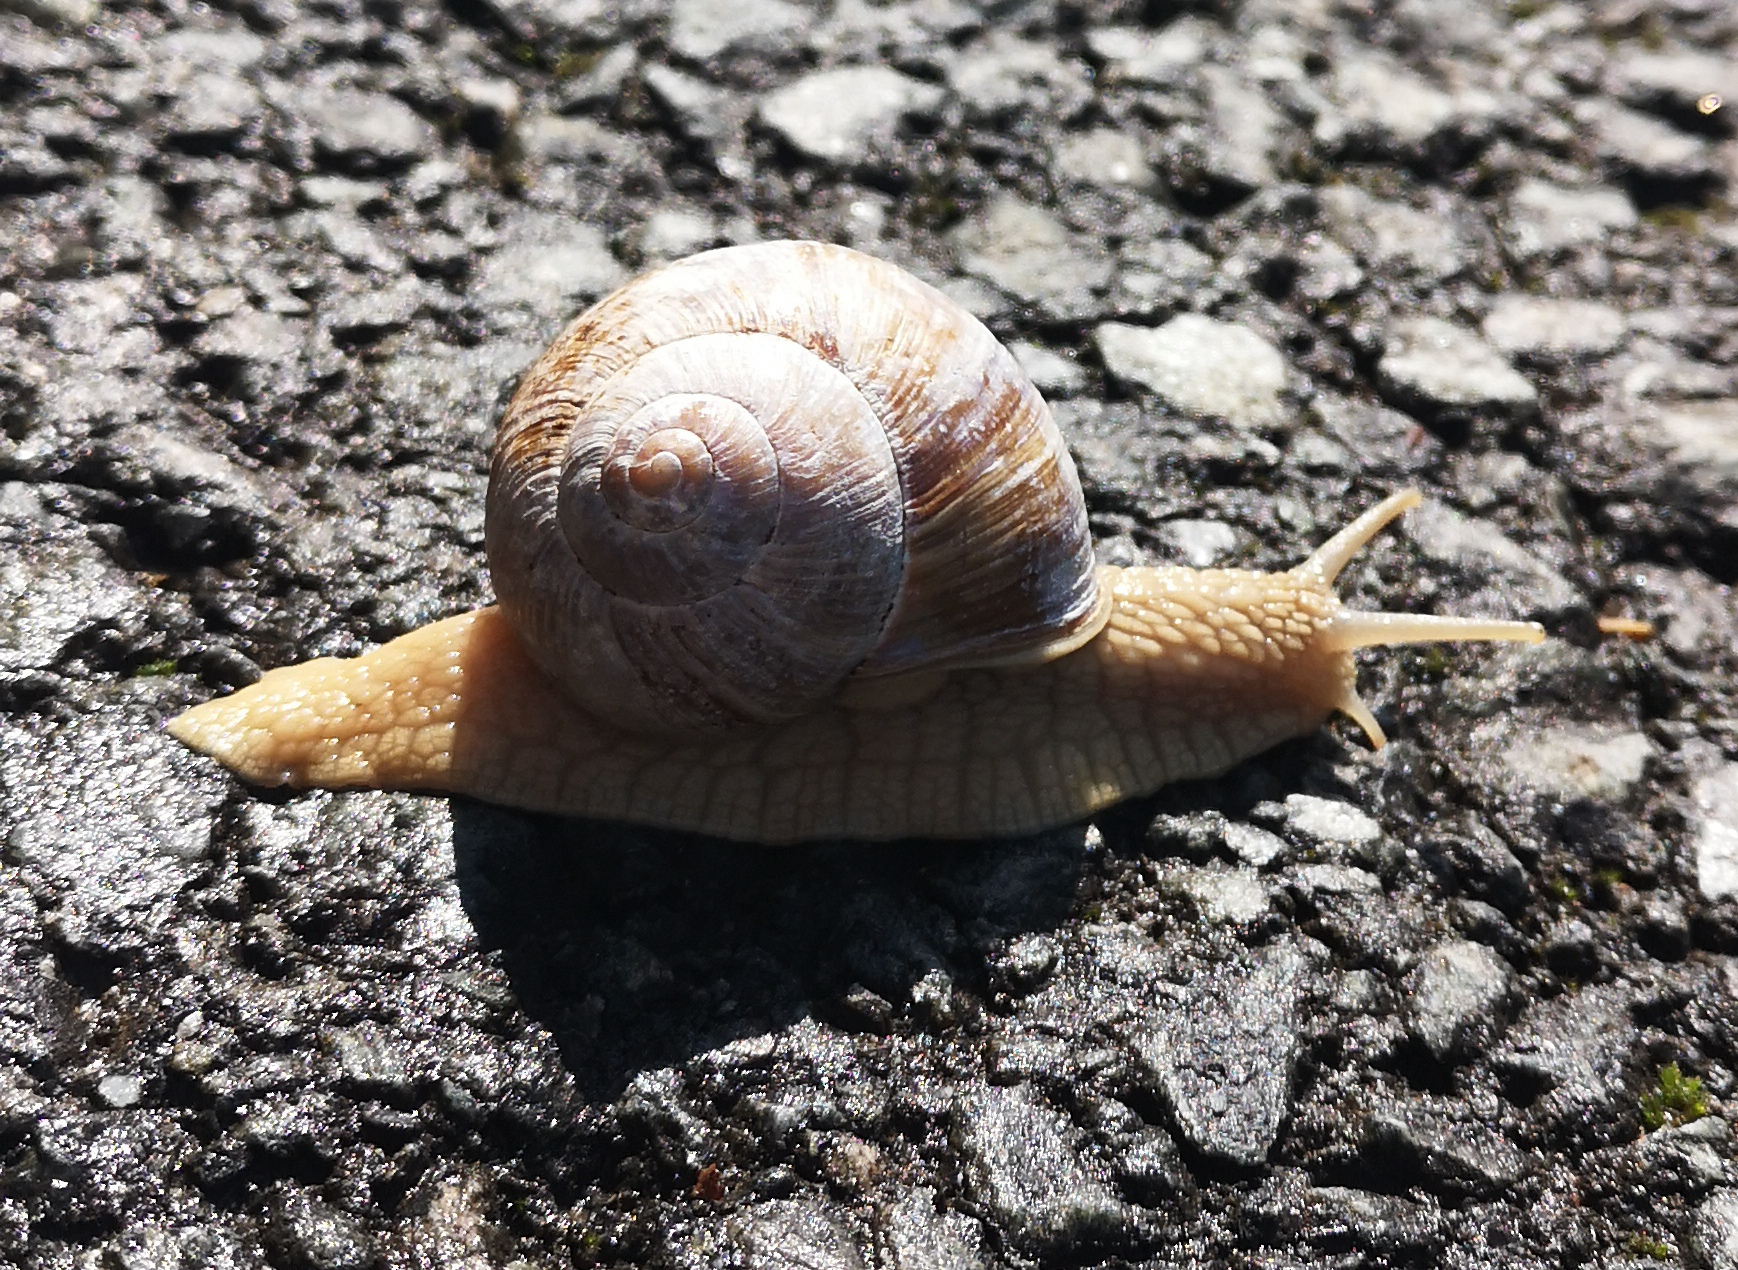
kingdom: Animalia
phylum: Mollusca
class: Gastropoda
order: Stylommatophora
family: Helicidae
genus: Helix
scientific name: Helix pomatia
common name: Roman snail
